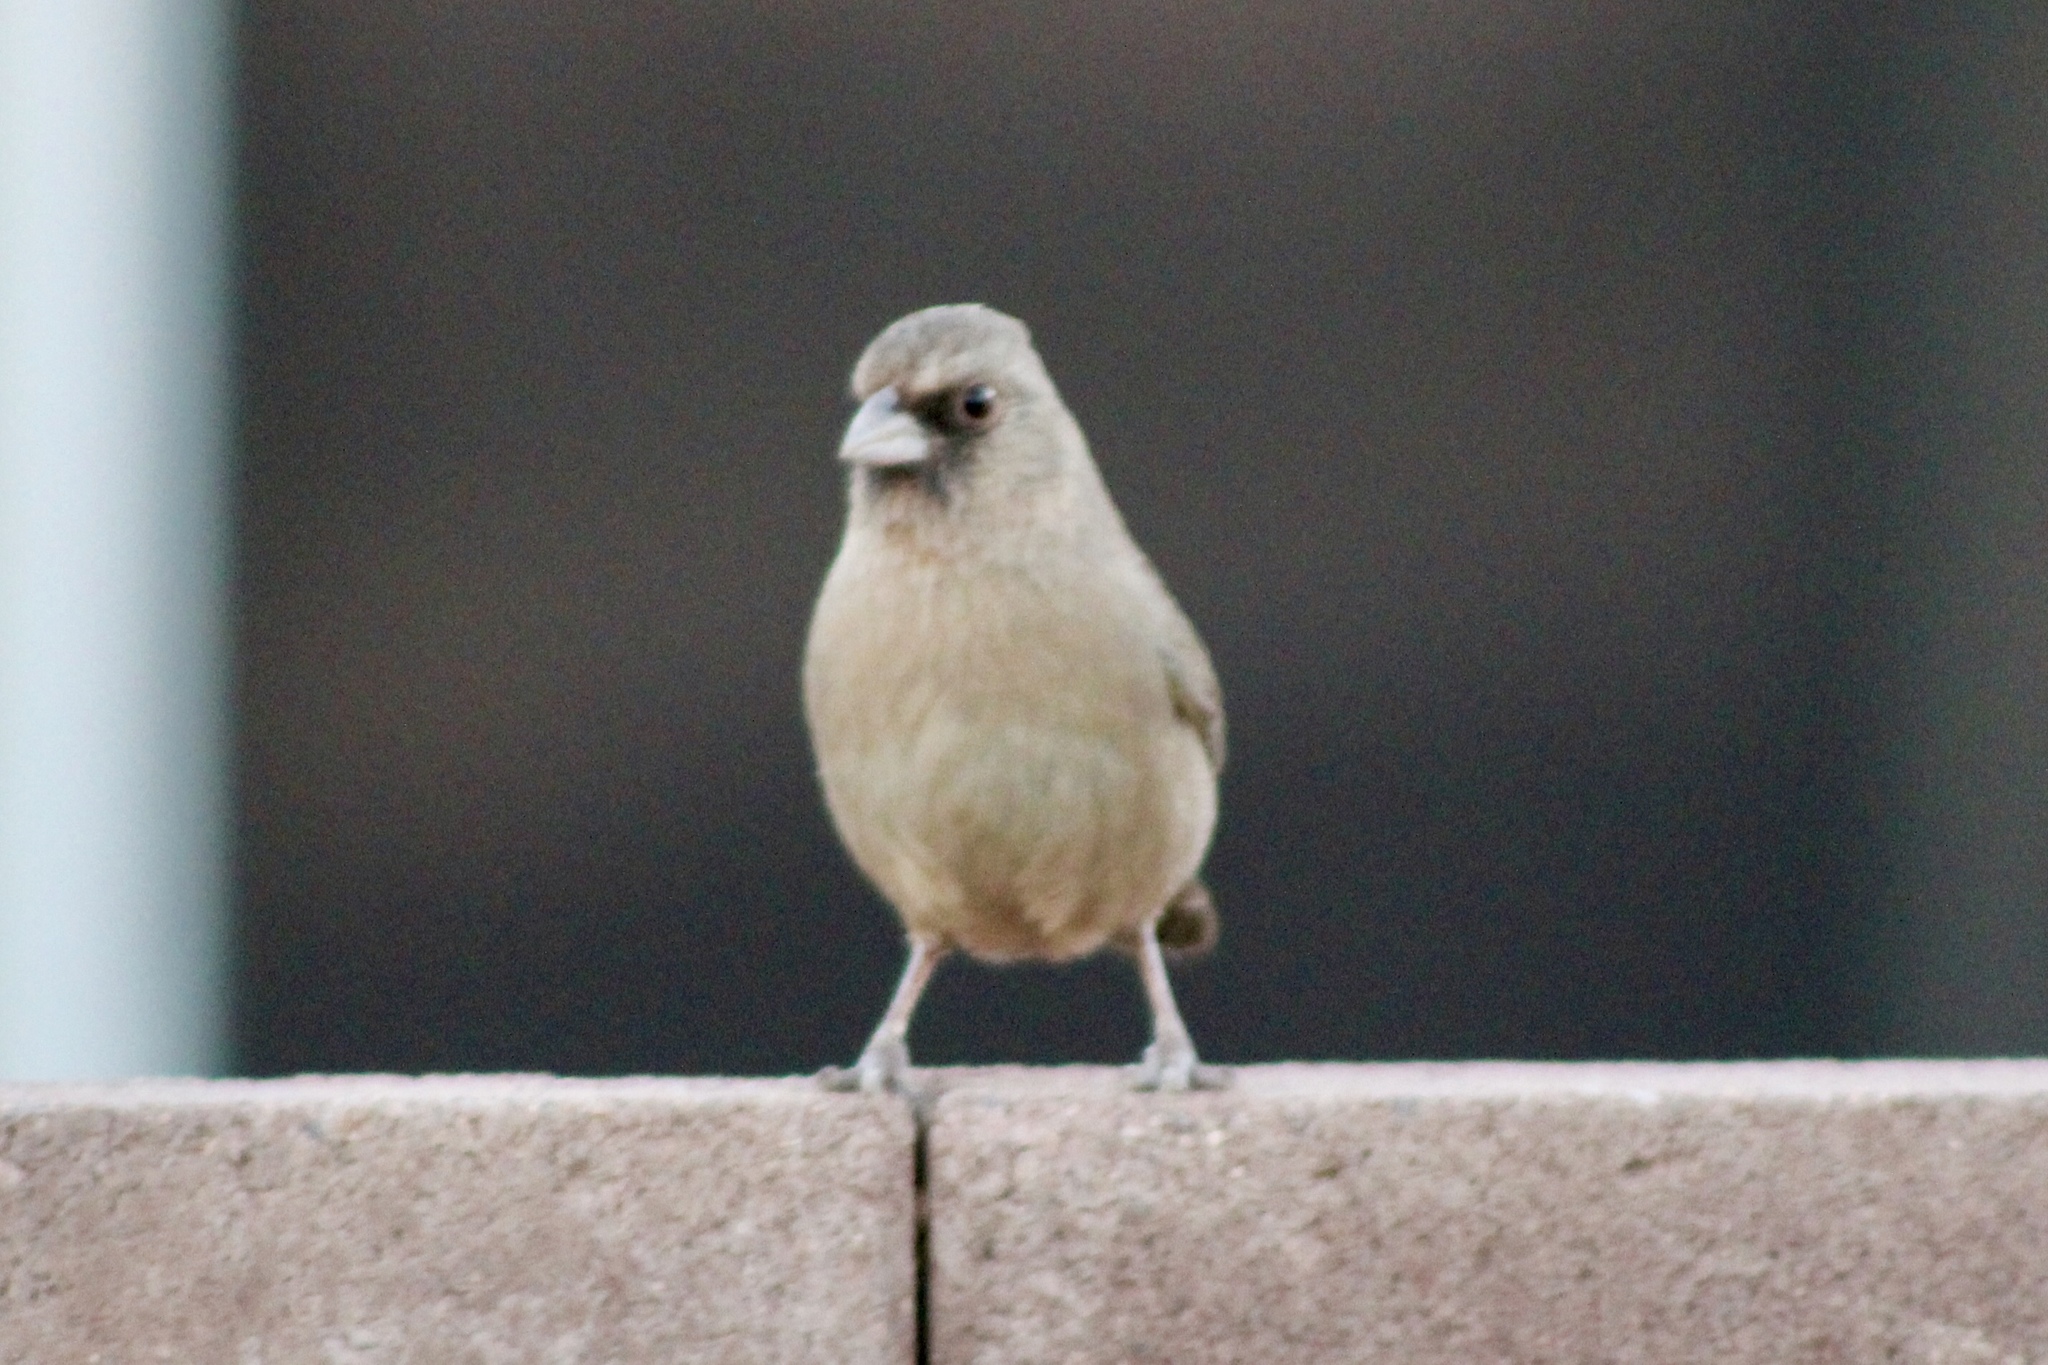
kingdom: Animalia
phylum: Chordata
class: Aves
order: Passeriformes
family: Passerellidae
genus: Melozone
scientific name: Melozone aberti
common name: Abert's towhee
